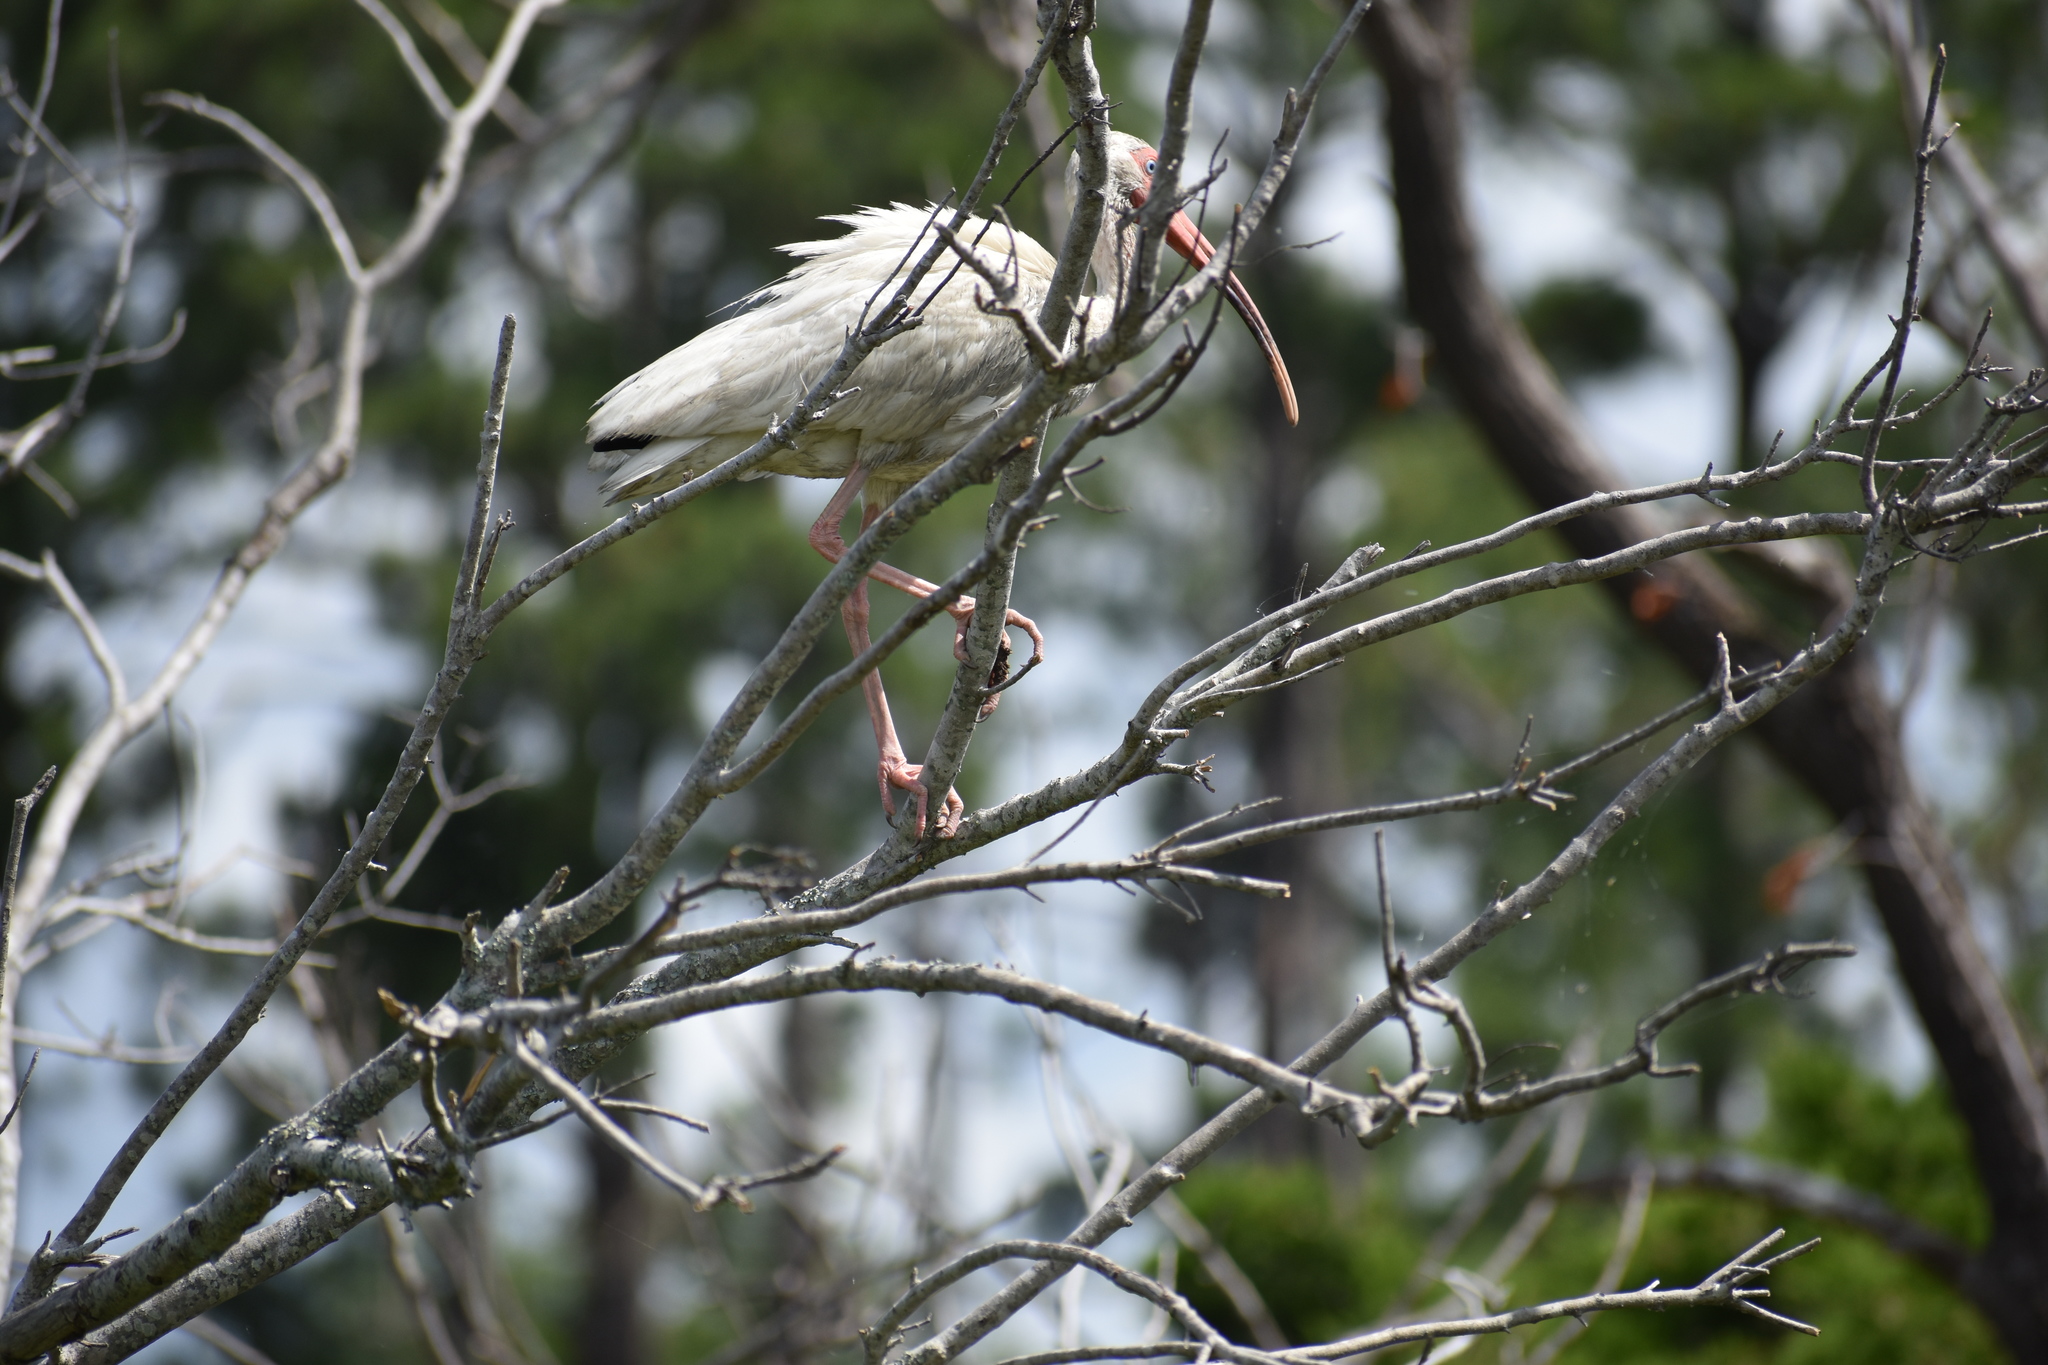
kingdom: Animalia
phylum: Chordata
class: Aves
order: Pelecaniformes
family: Threskiornithidae
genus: Eudocimus
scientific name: Eudocimus albus
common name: White ibis
